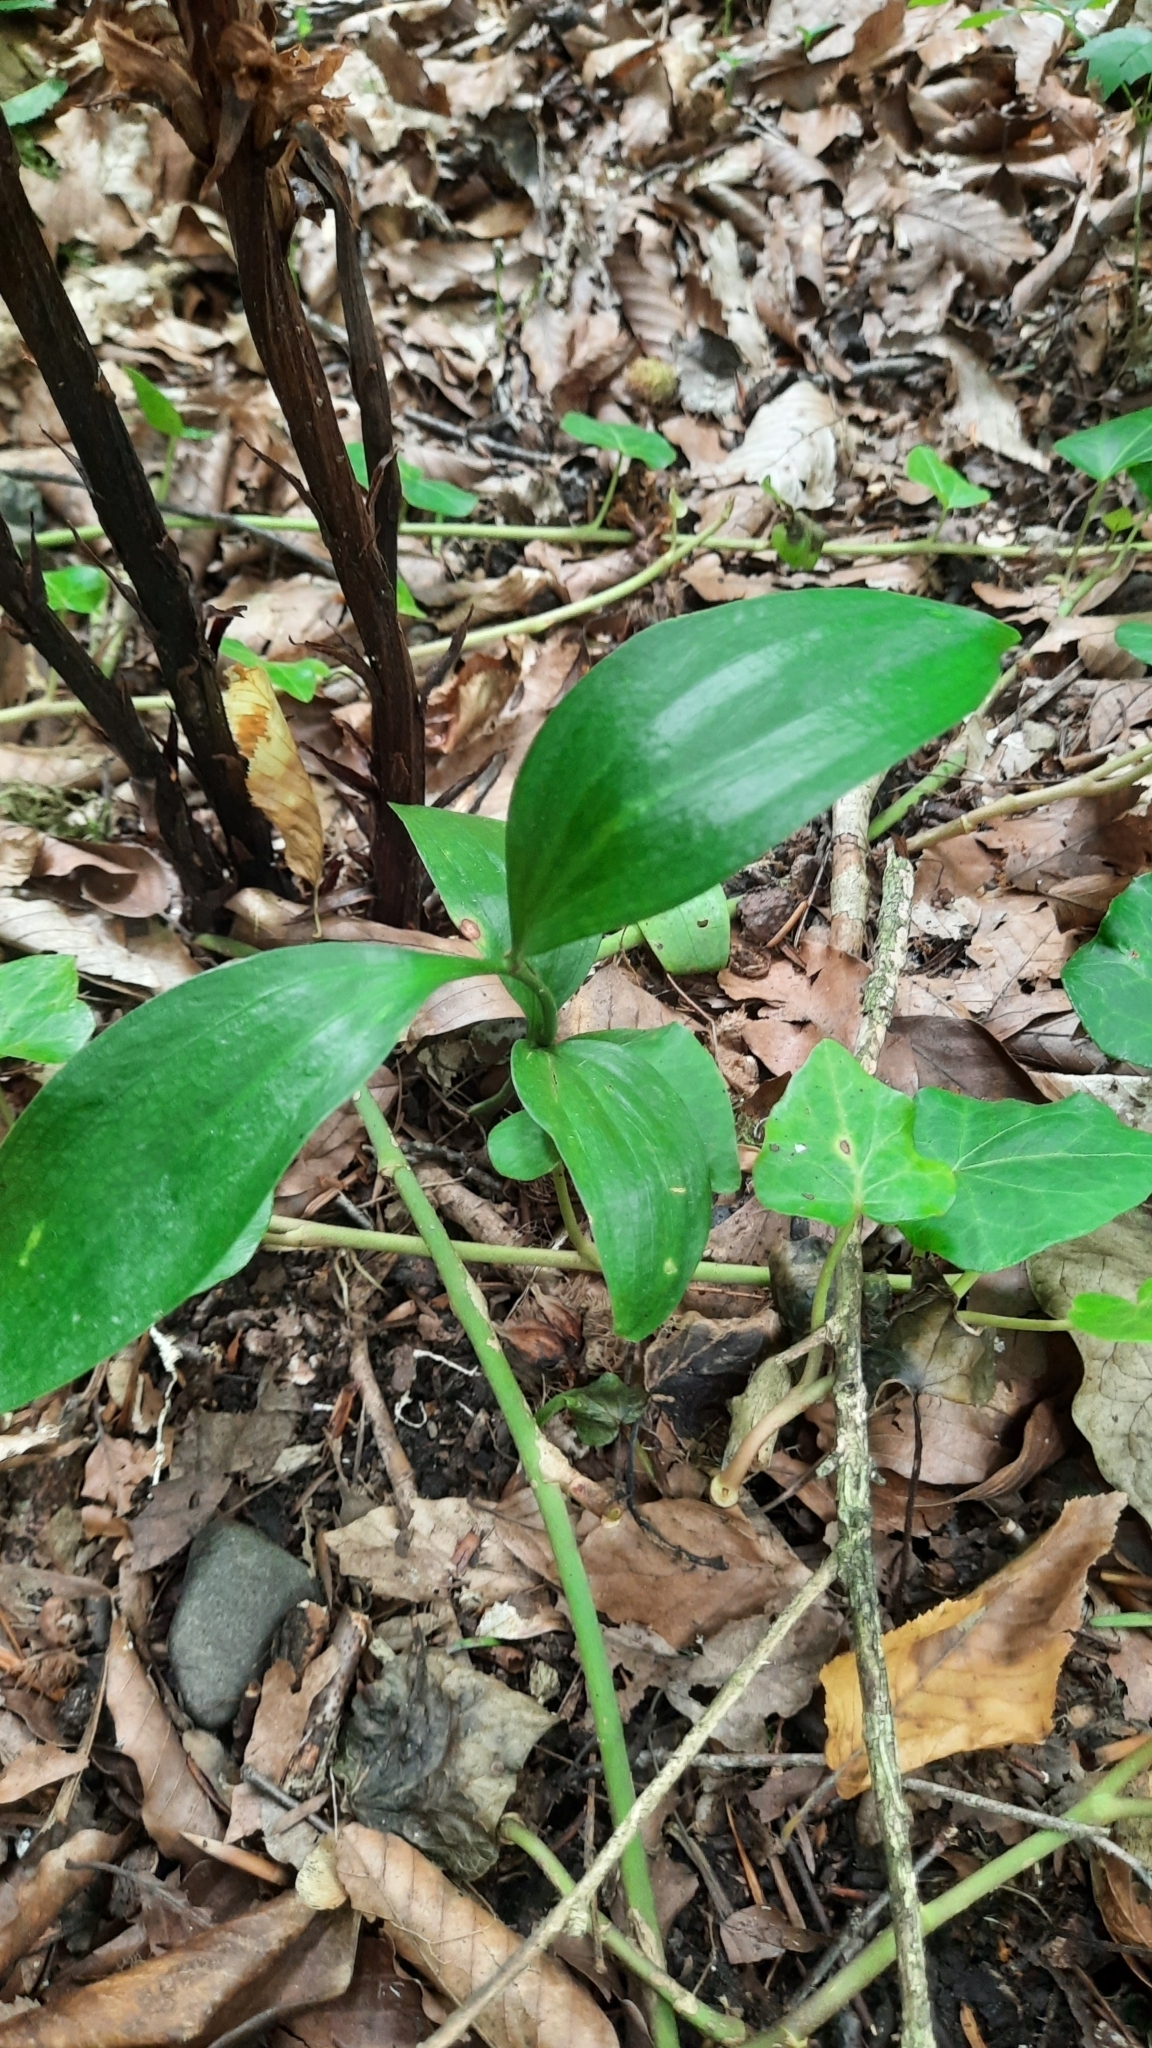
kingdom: Plantae
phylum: Tracheophyta
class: Liliopsida
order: Asparagales
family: Asparagaceae
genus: Ruscus
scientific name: Ruscus colchicus
